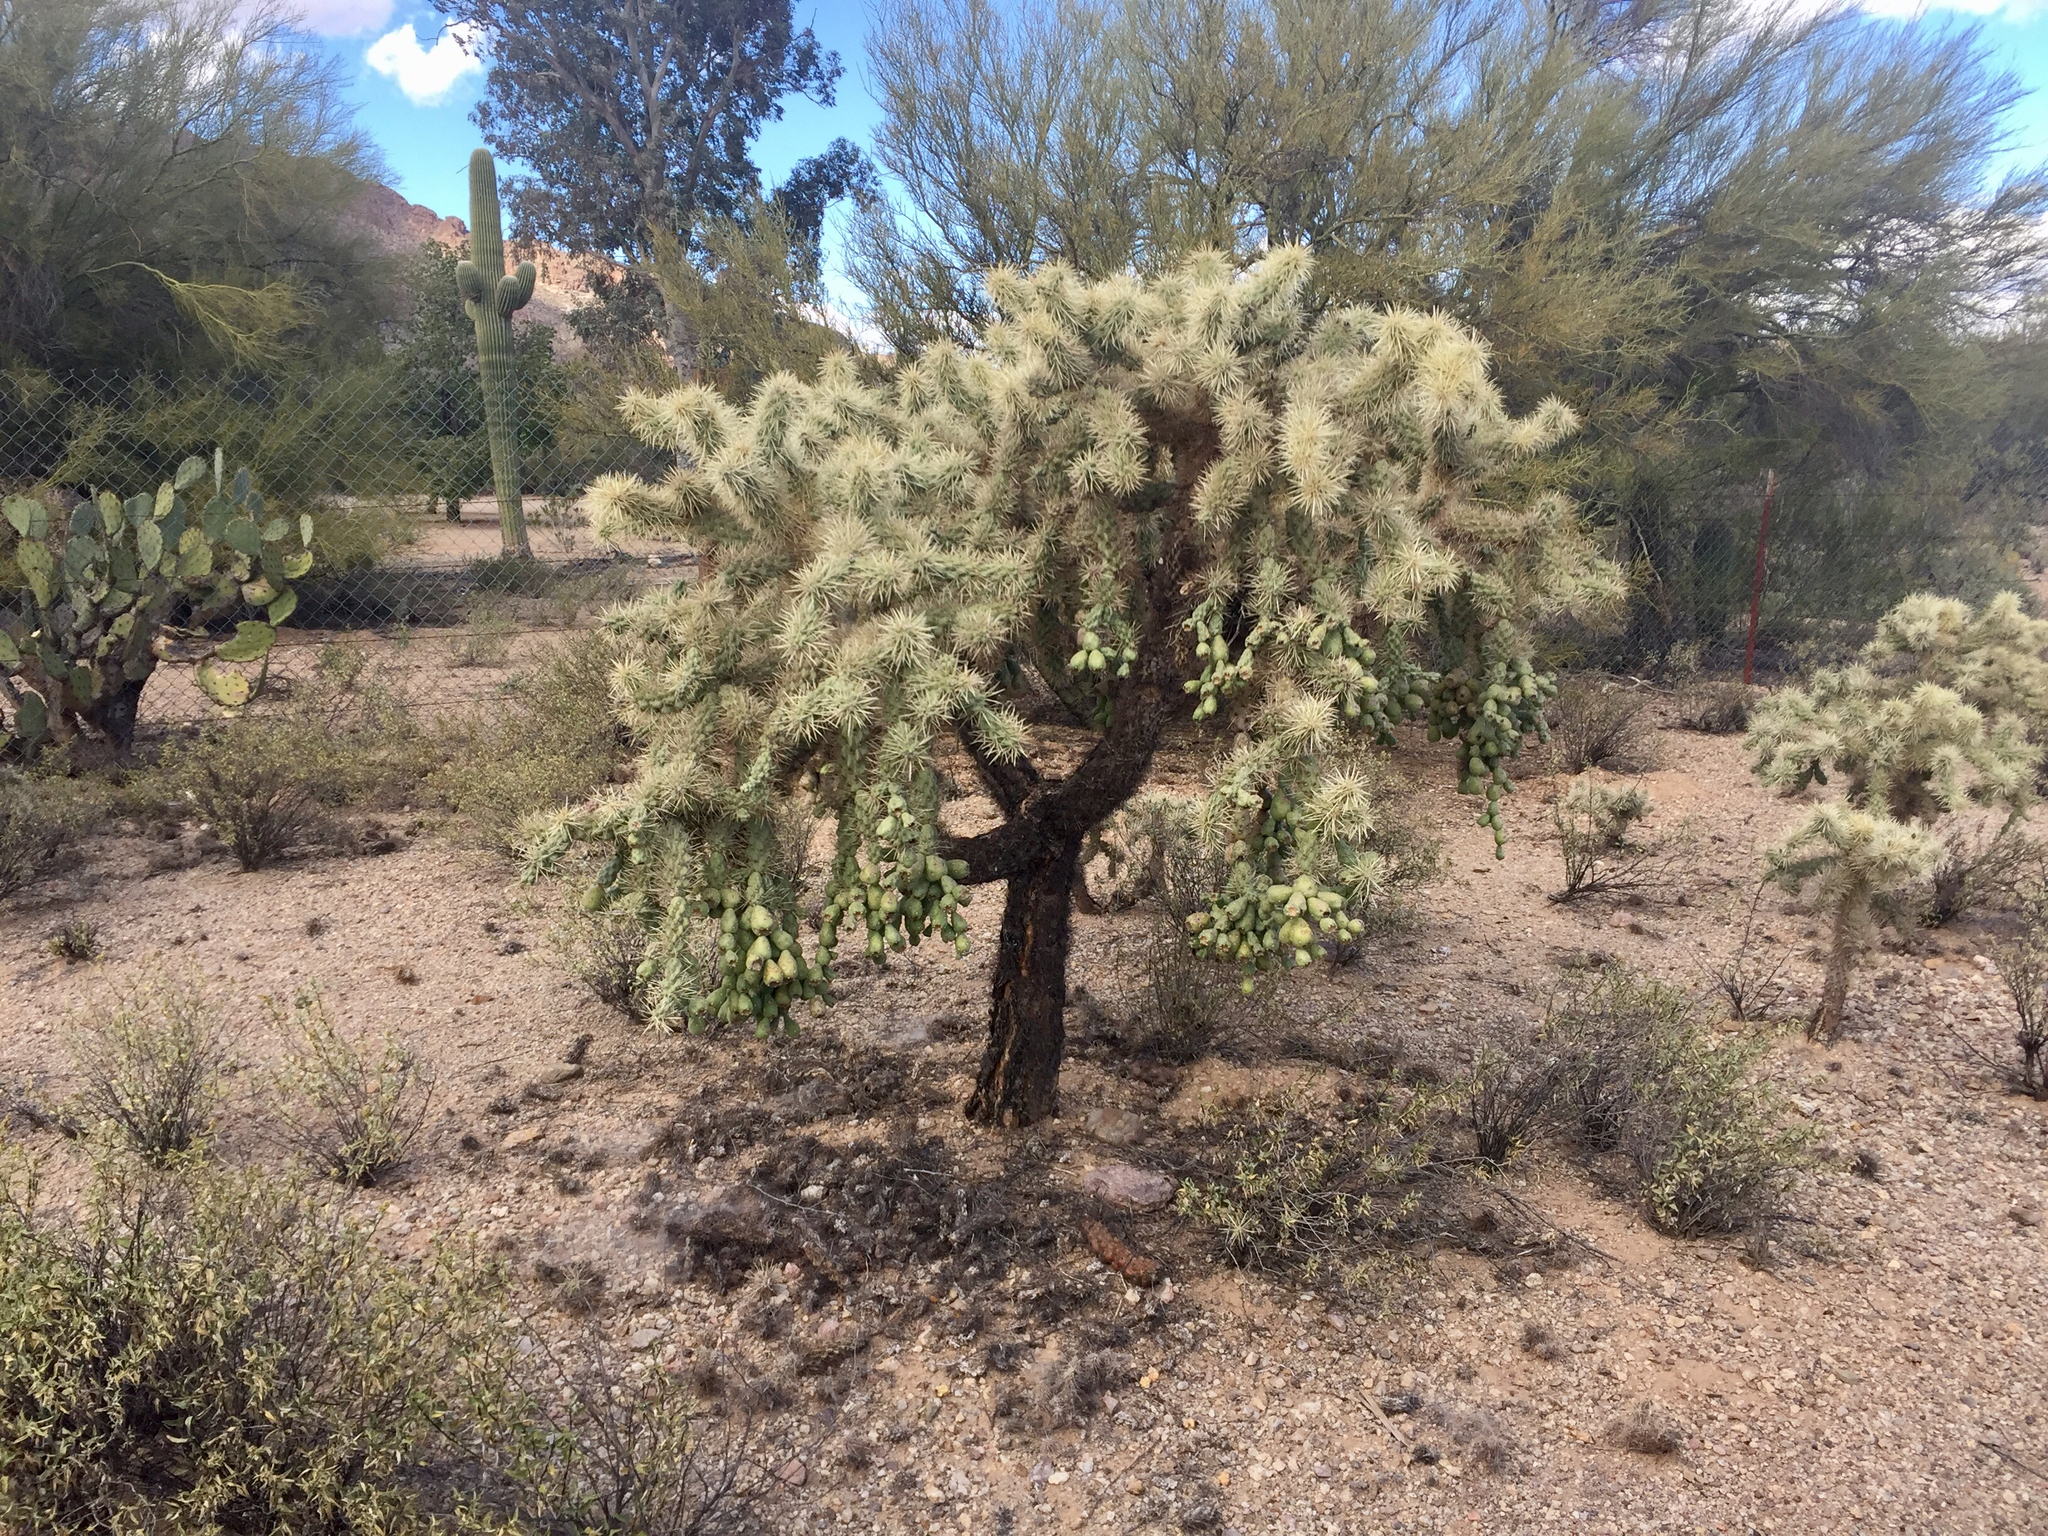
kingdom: Plantae
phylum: Tracheophyta
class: Magnoliopsida
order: Caryophyllales
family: Cactaceae
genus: Cylindropuntia
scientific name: Cylindropuntia fulgida
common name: Jumping cholla
